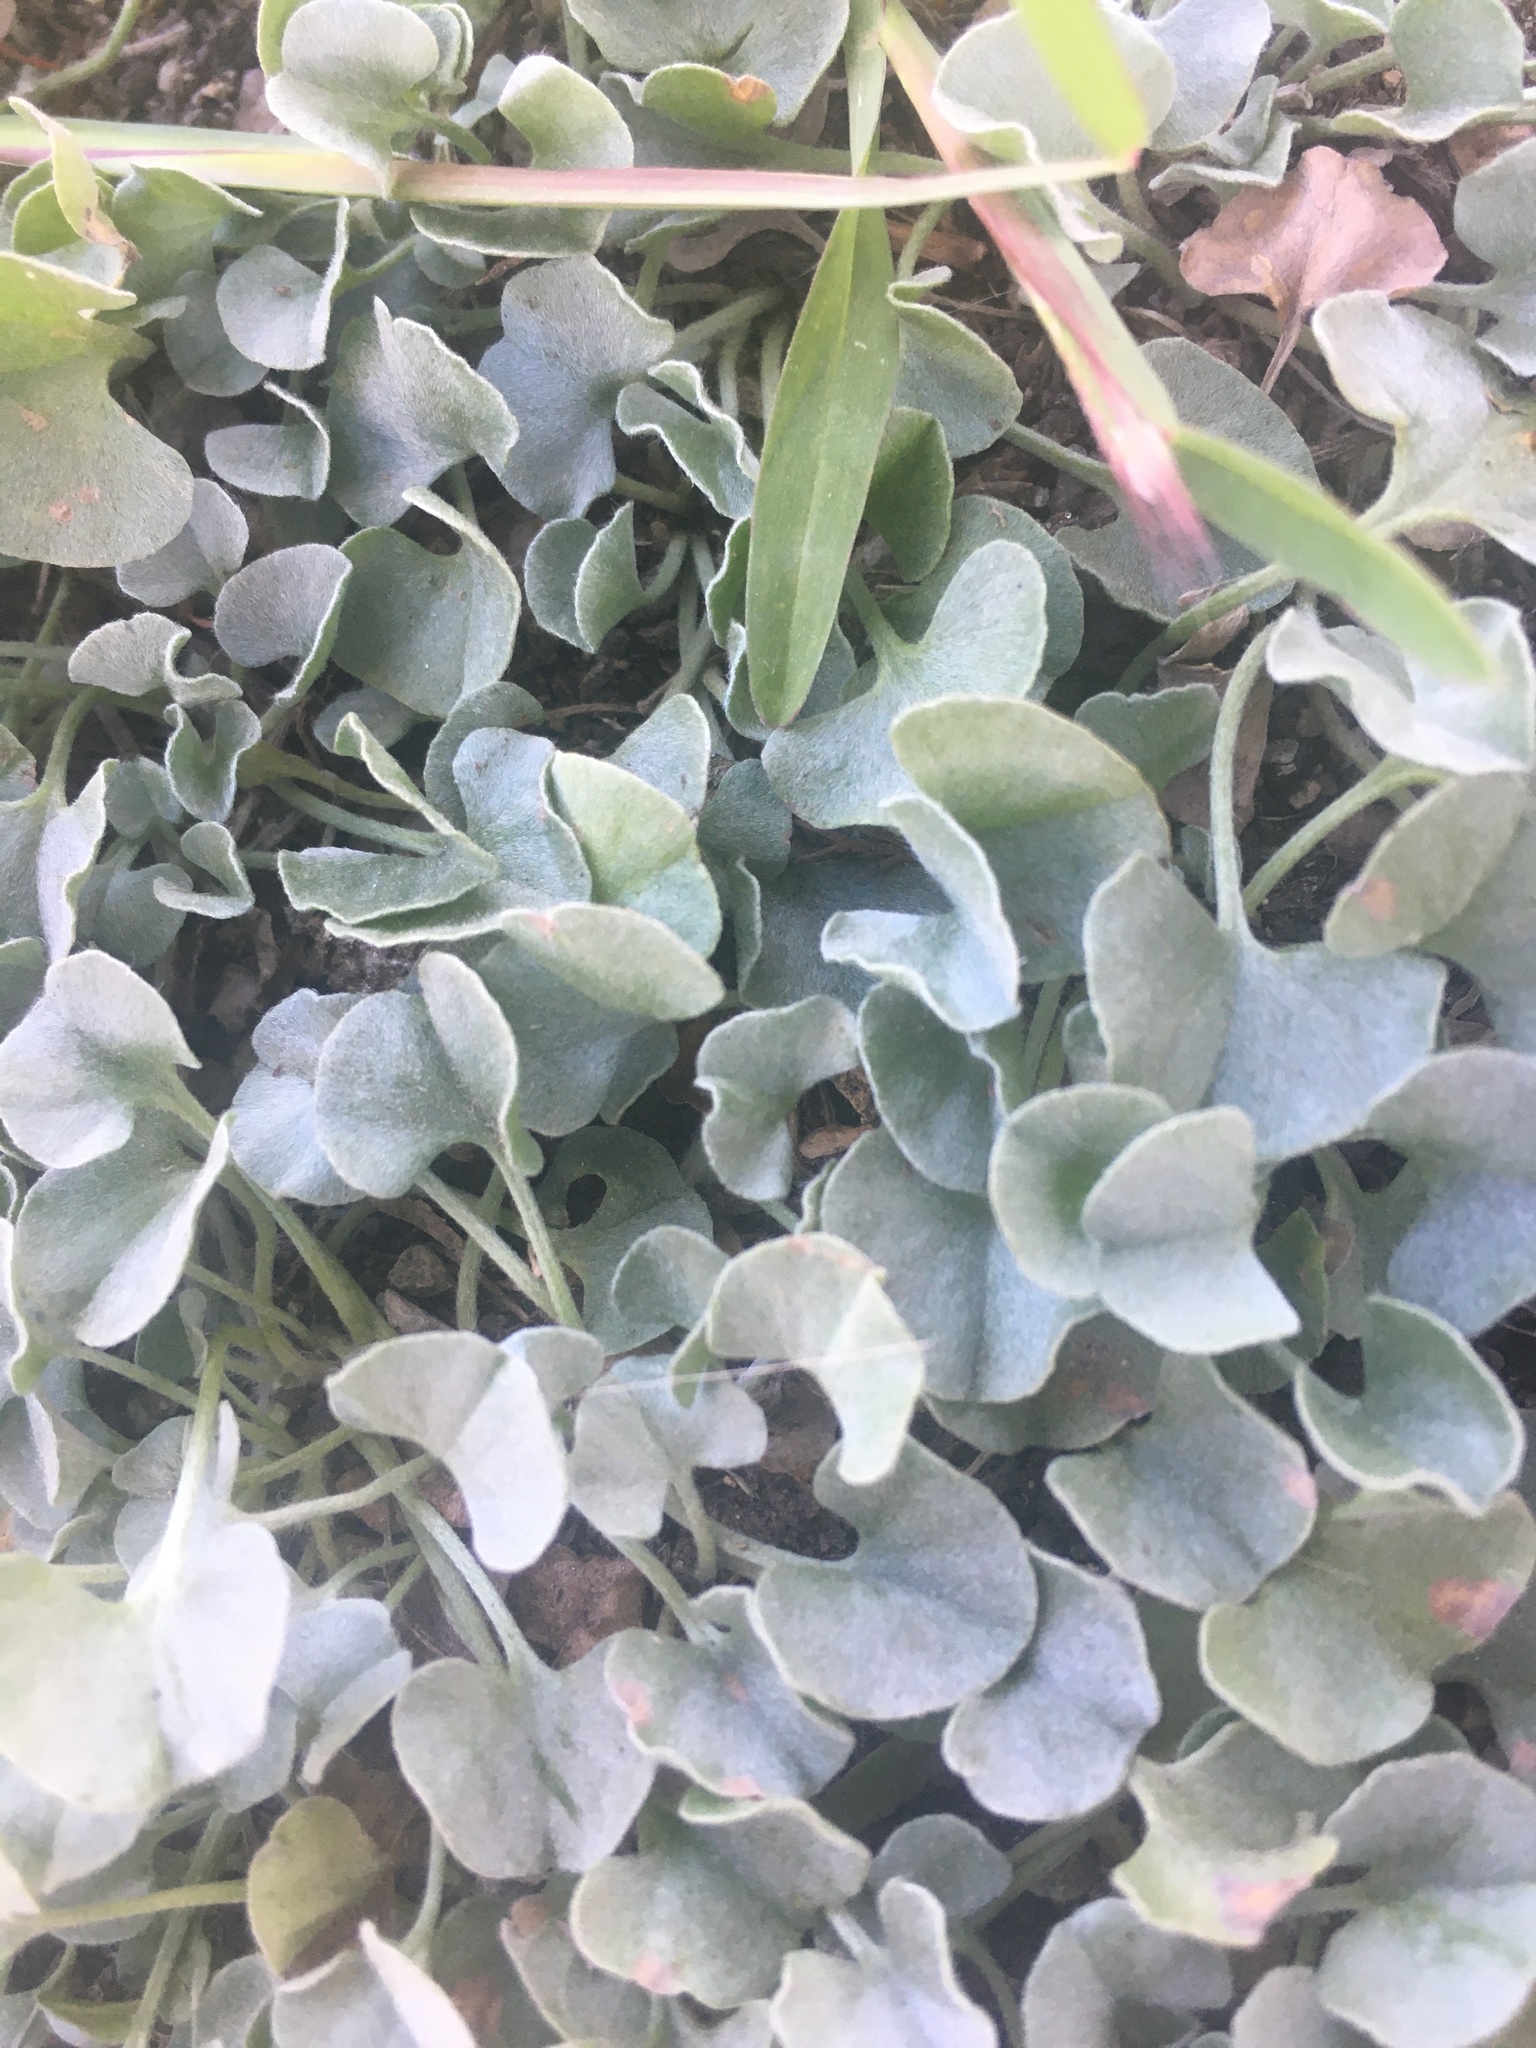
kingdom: Plantae
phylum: Tracheophyta
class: Magnoliopsida
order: Solanales
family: Convolvulaceae
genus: Dichondra
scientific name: Dichondra argentea
